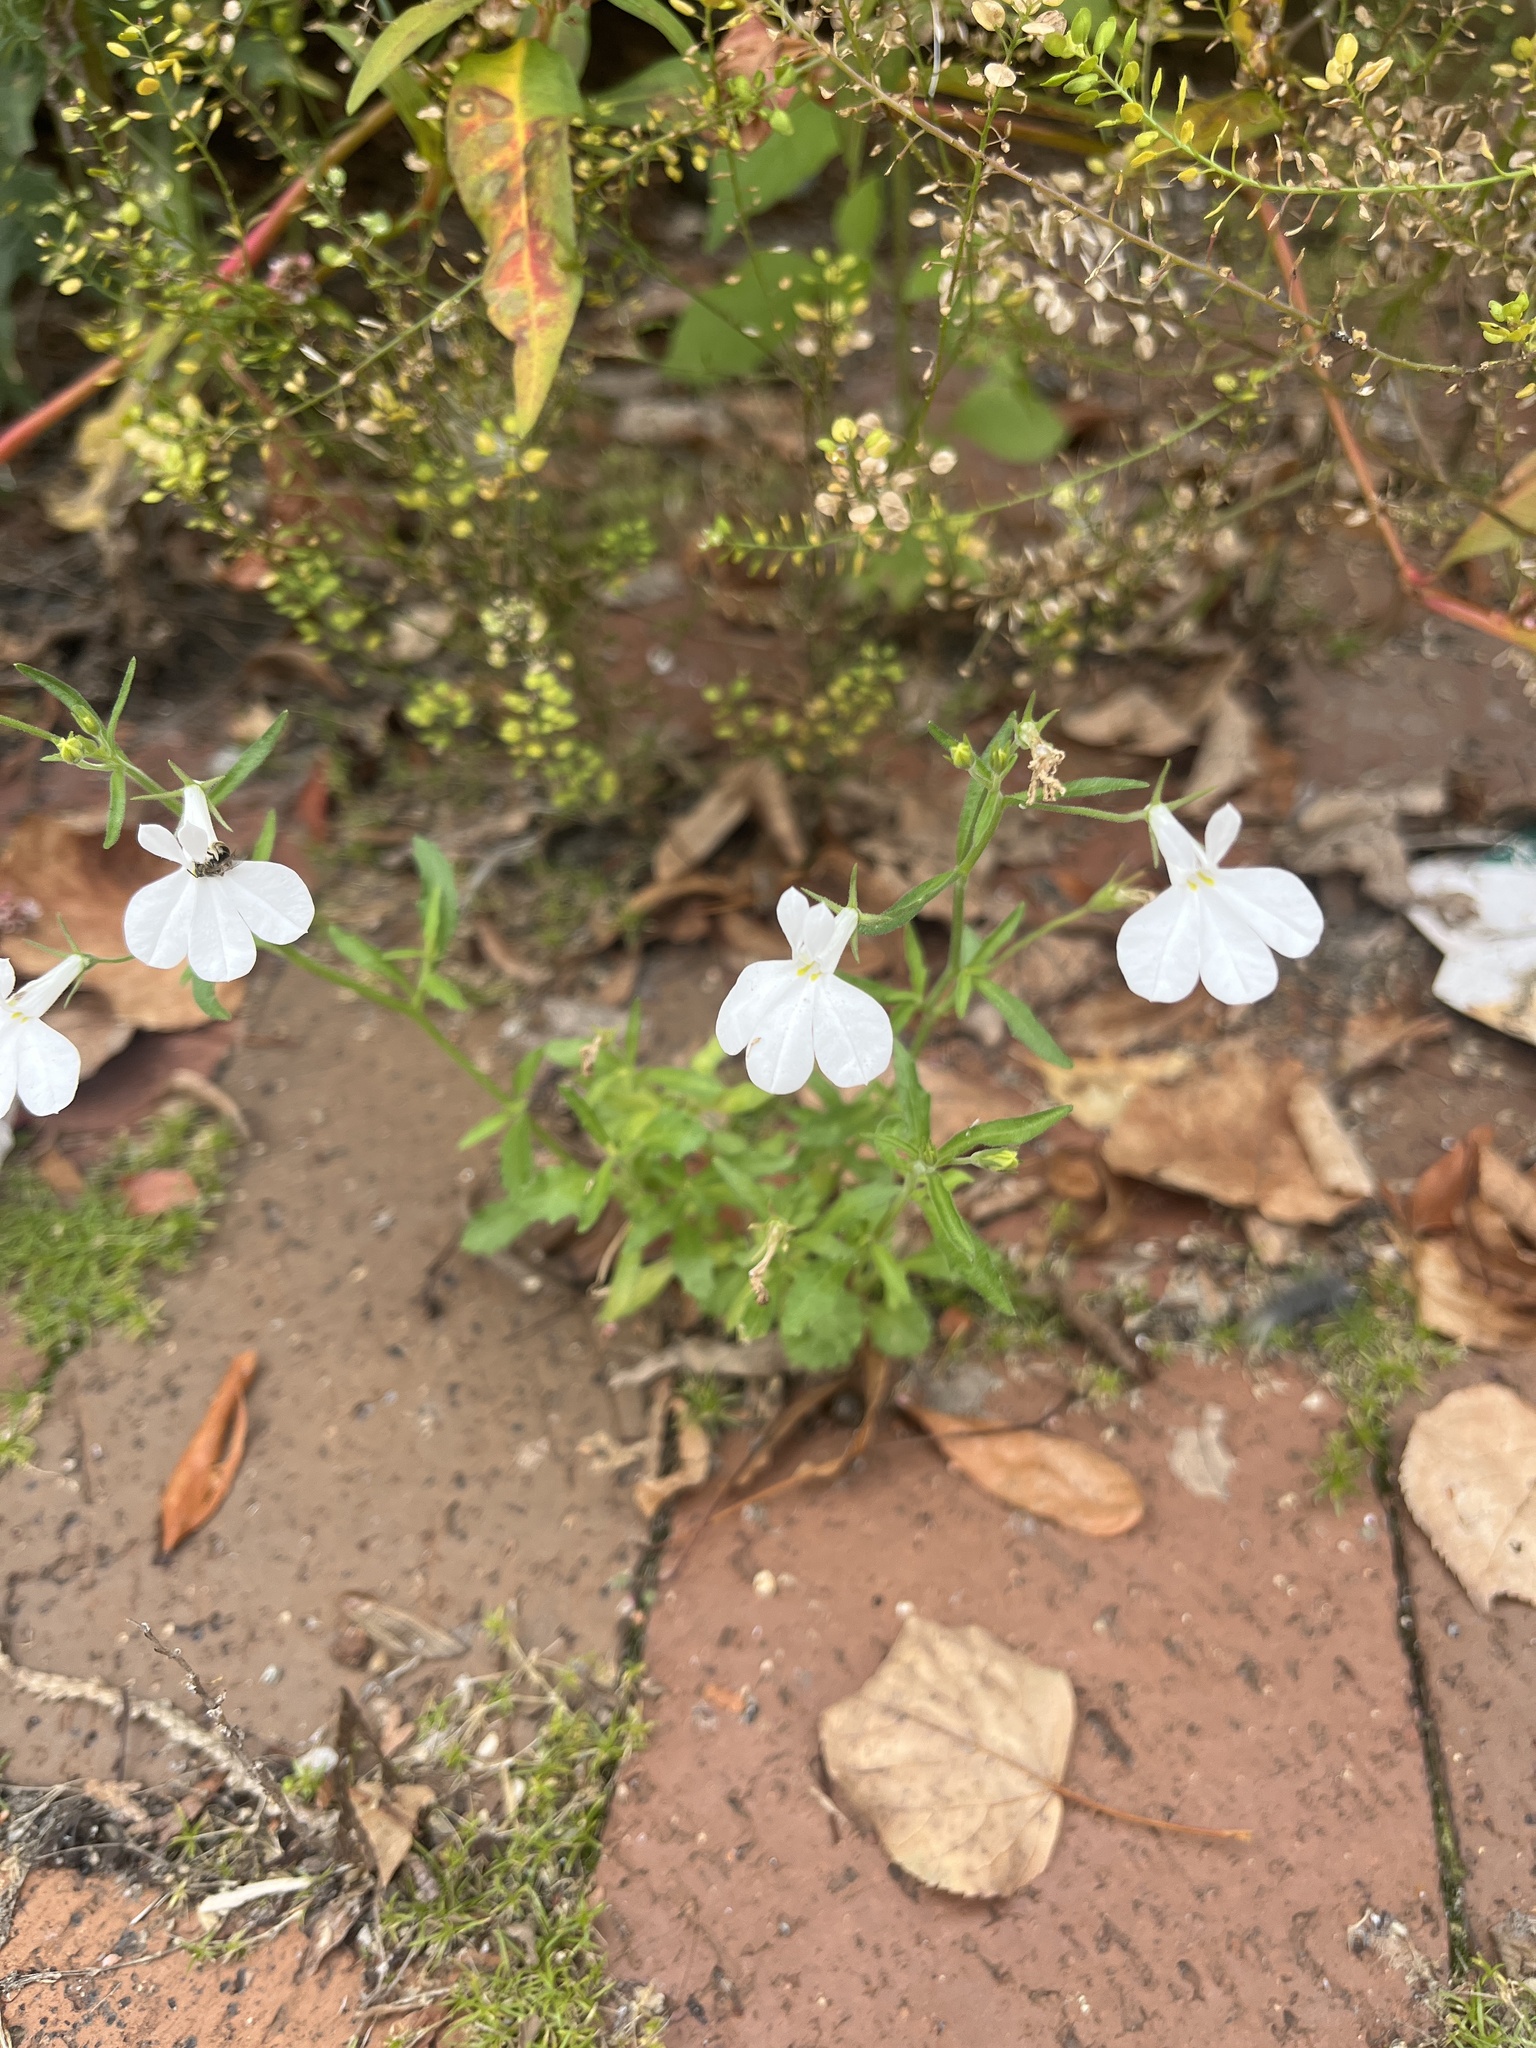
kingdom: Plantae
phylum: Tracheophyta
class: Magnoliopsida
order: Asterales
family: Campanulaceae
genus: Lobelia
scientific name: Lobelia erinus
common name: Edging lobelia
